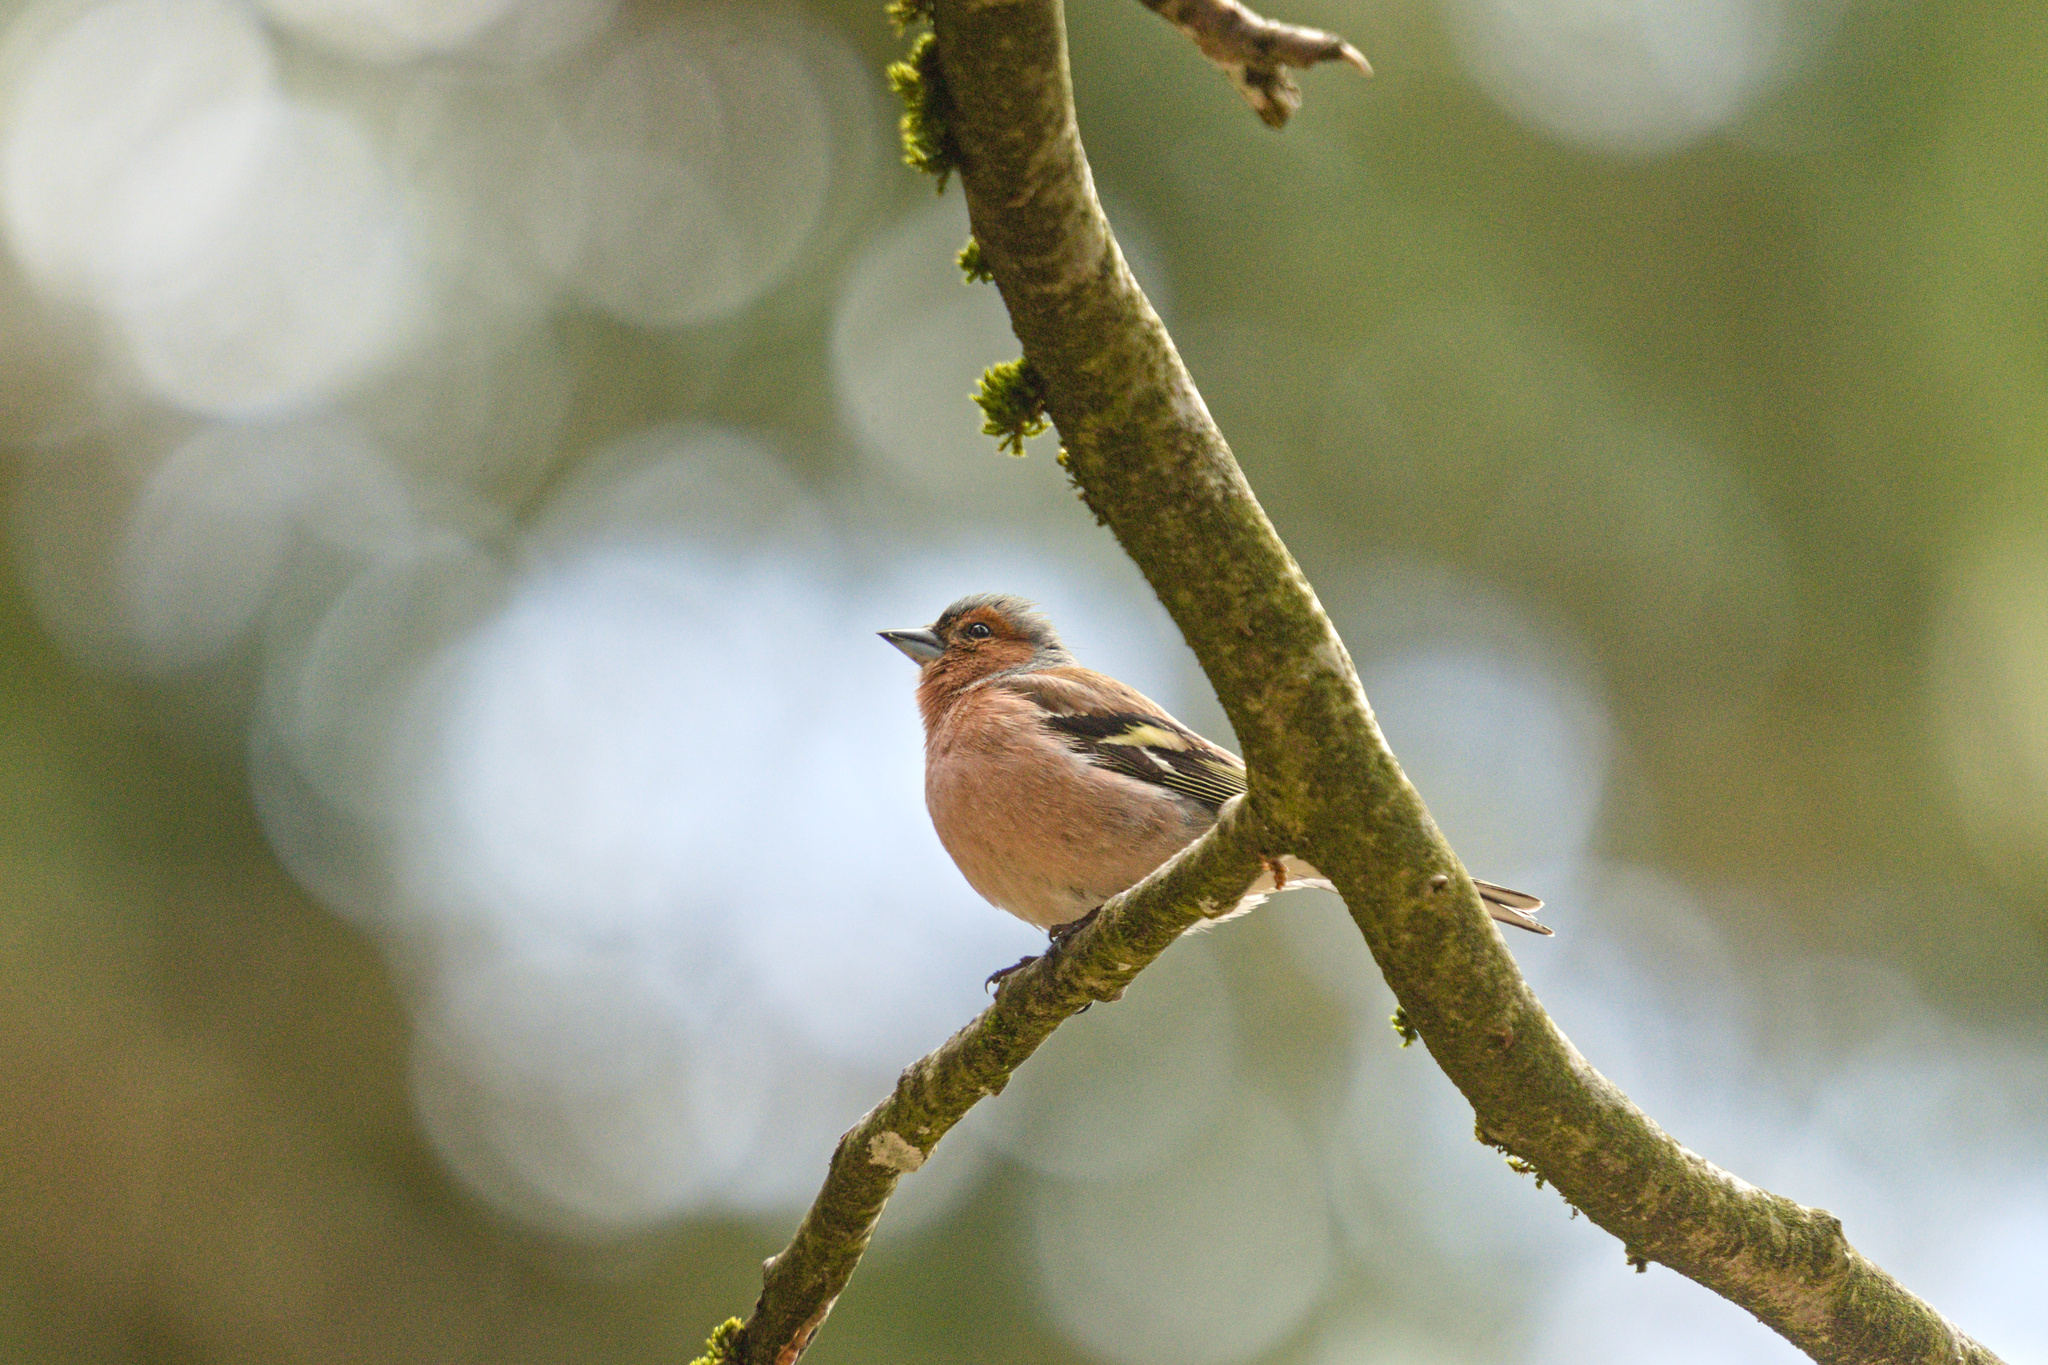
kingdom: Animalia
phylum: Chordata
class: Aves
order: Passeriformes
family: Fringillidae
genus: Fringilla
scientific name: Fringilla coelebs
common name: Common chaffinch
